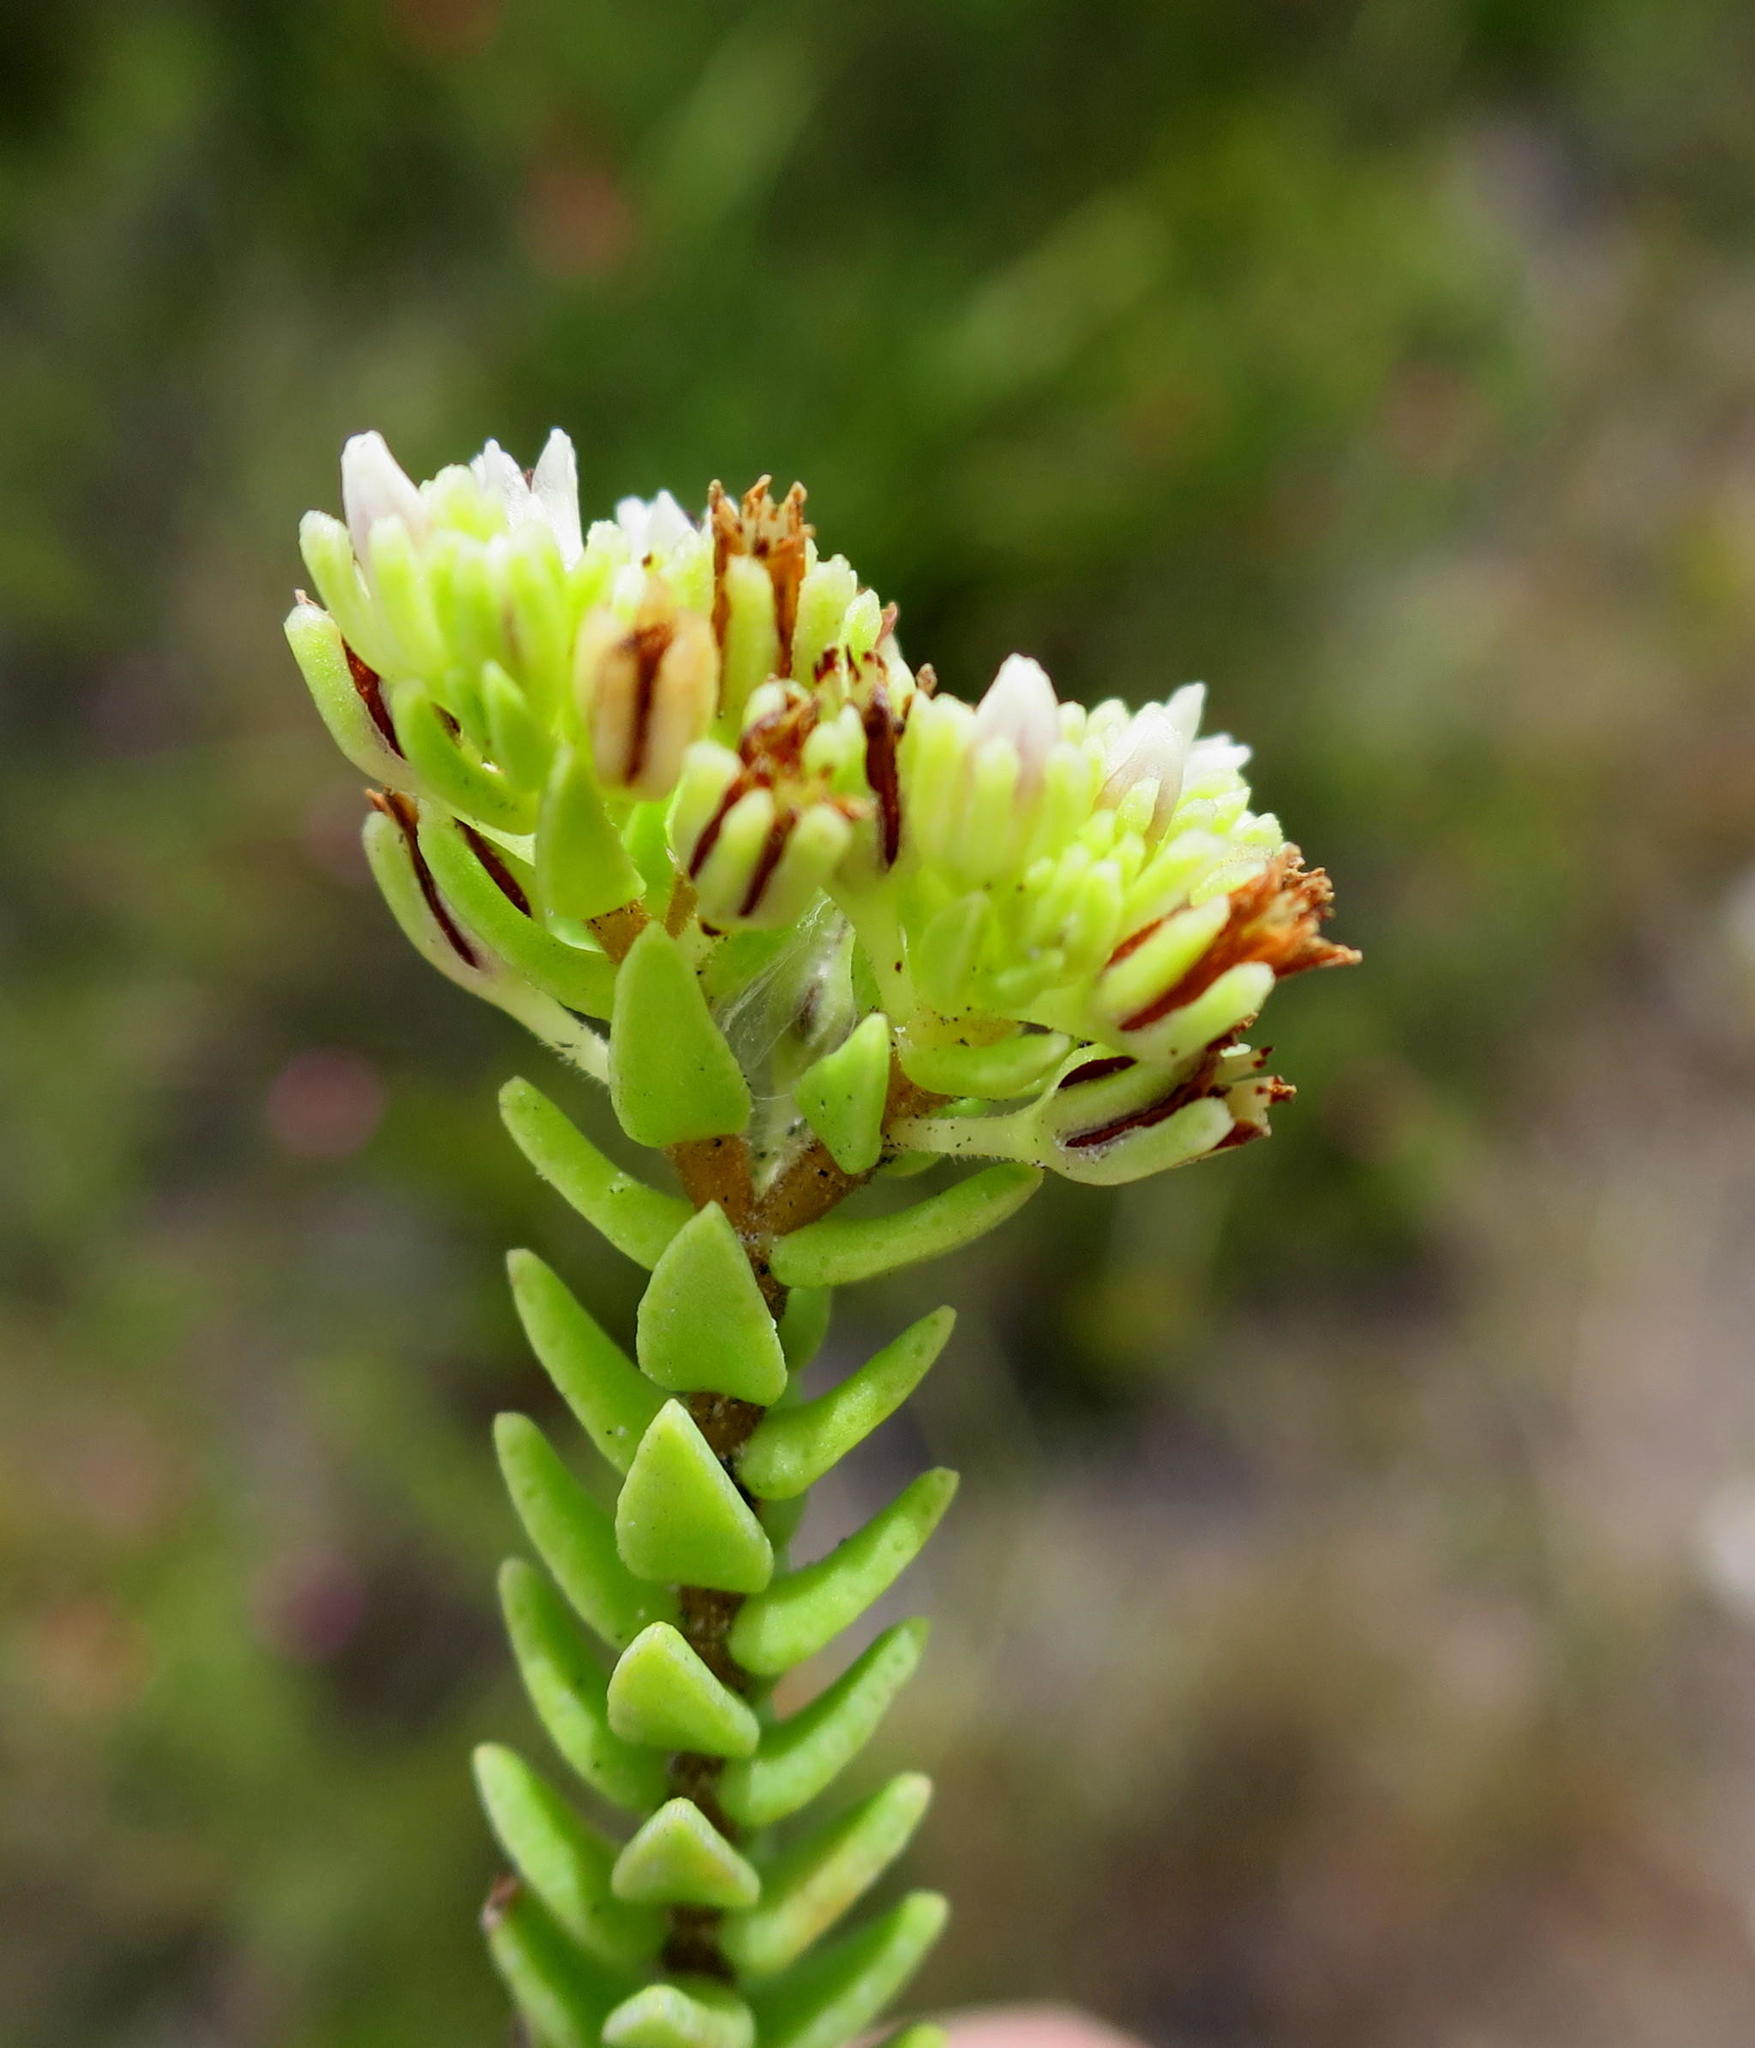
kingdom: Plantae
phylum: Tracheophyta
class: Magnoliopsida
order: Saxifragales
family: Crassulaceae
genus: Crassula
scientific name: Crassula ericoides
